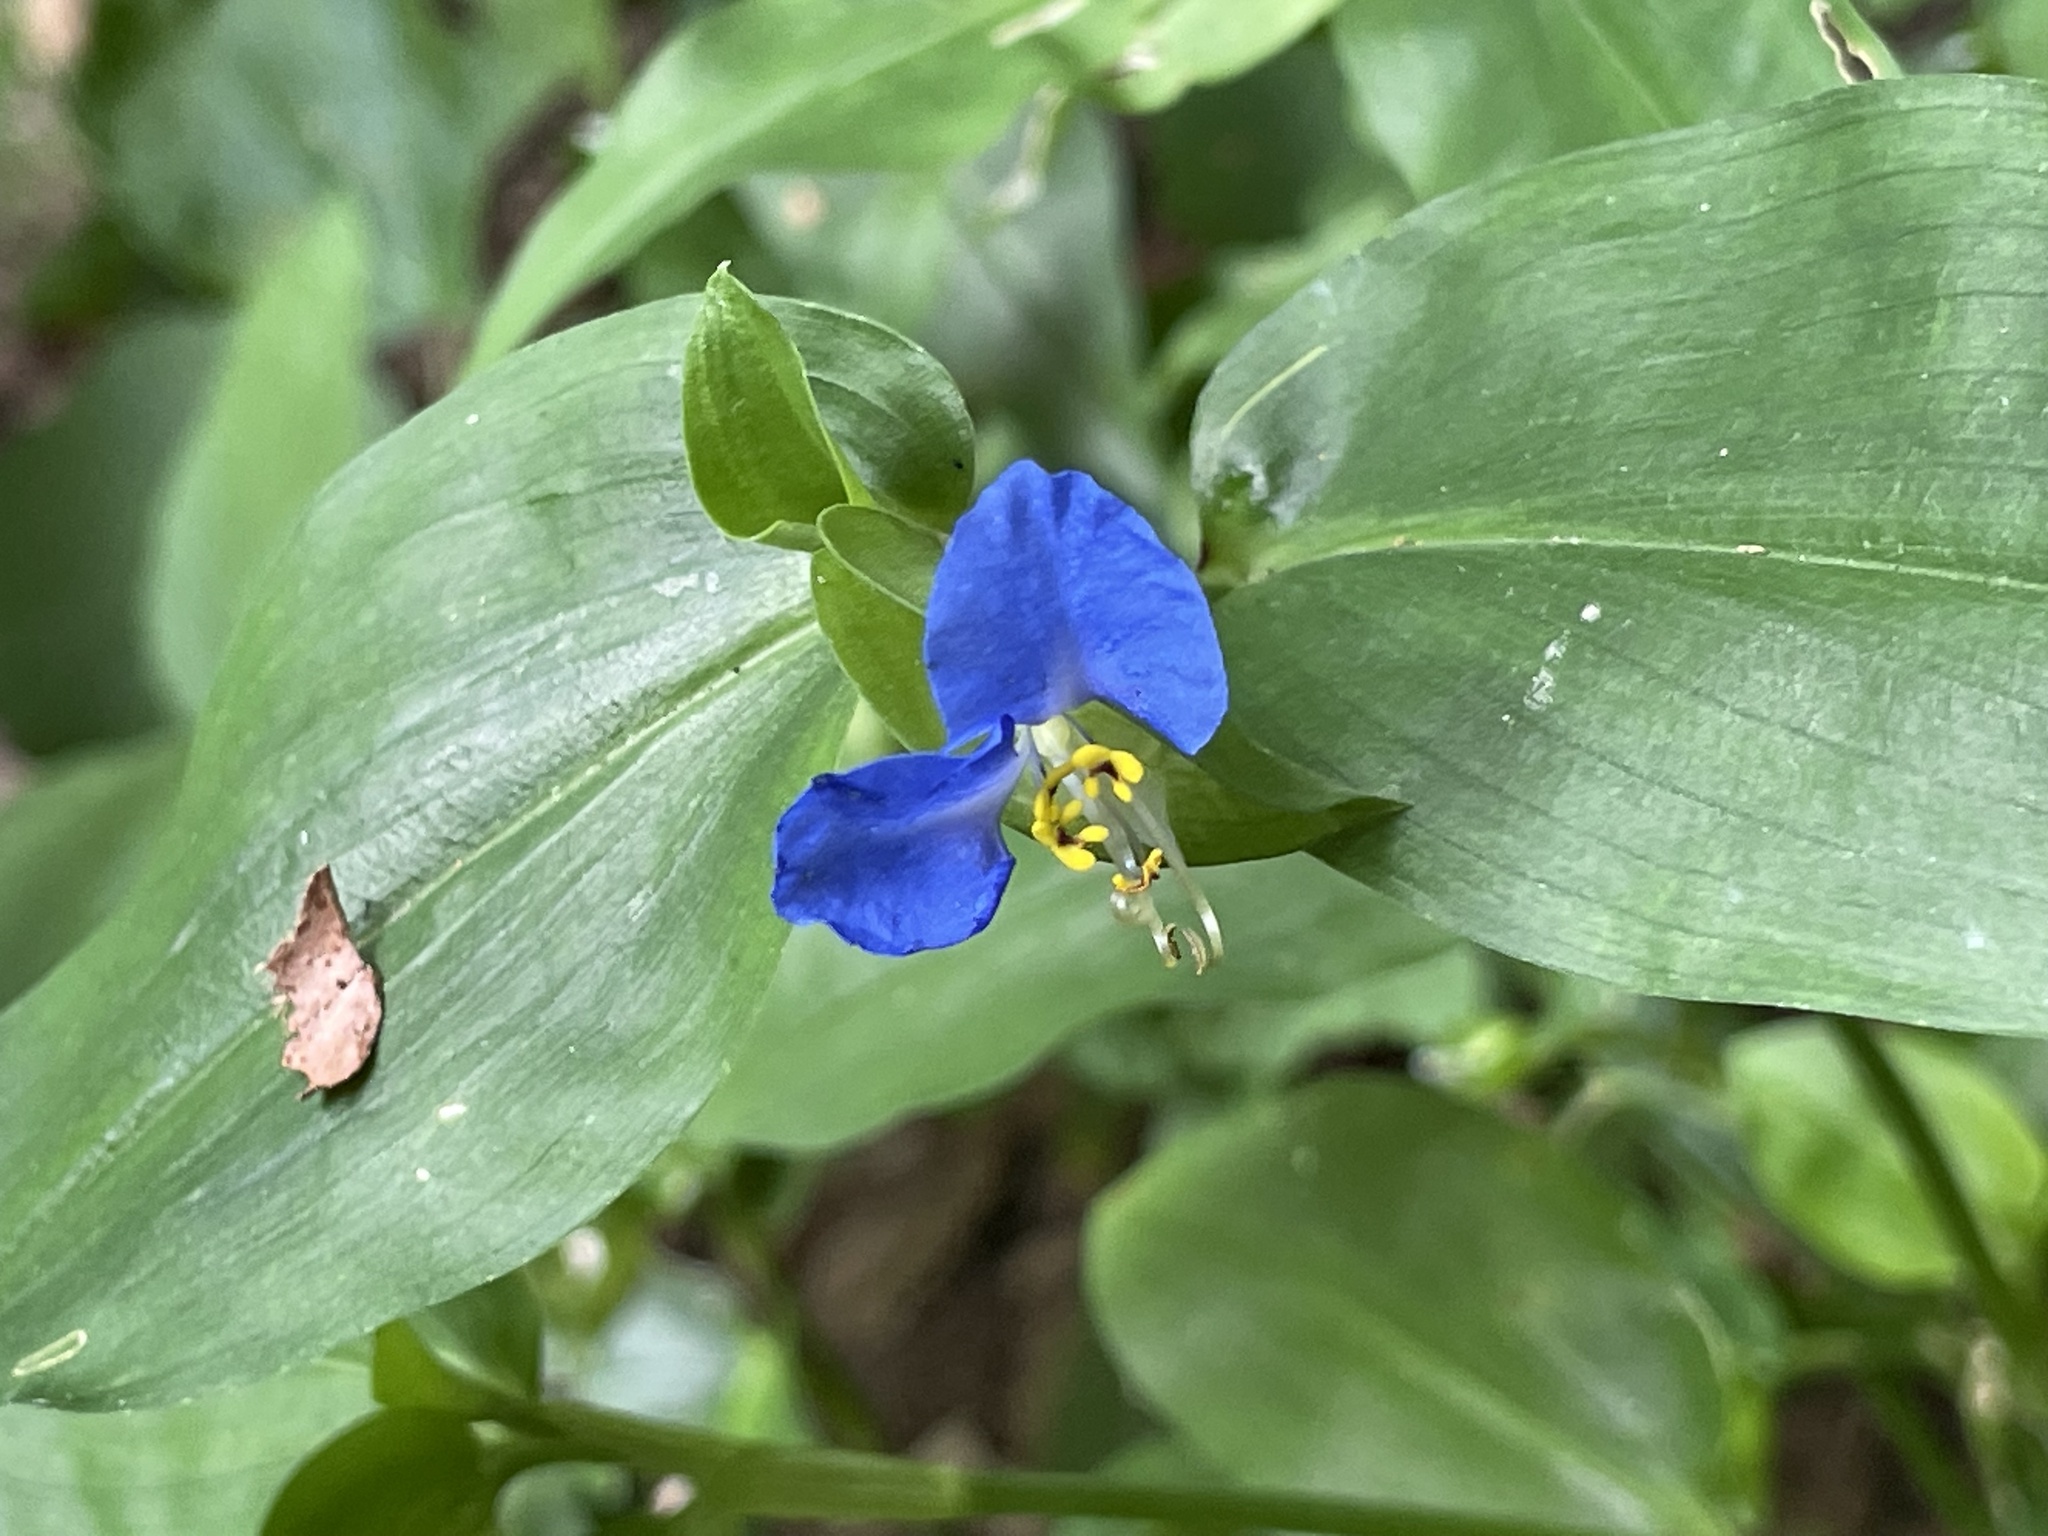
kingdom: Plantae
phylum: Tracheophyta
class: Liliopsida
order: Commelinales
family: Commelinaceae
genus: Commelina
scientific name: Commelina communis
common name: Asiatic dayflower
